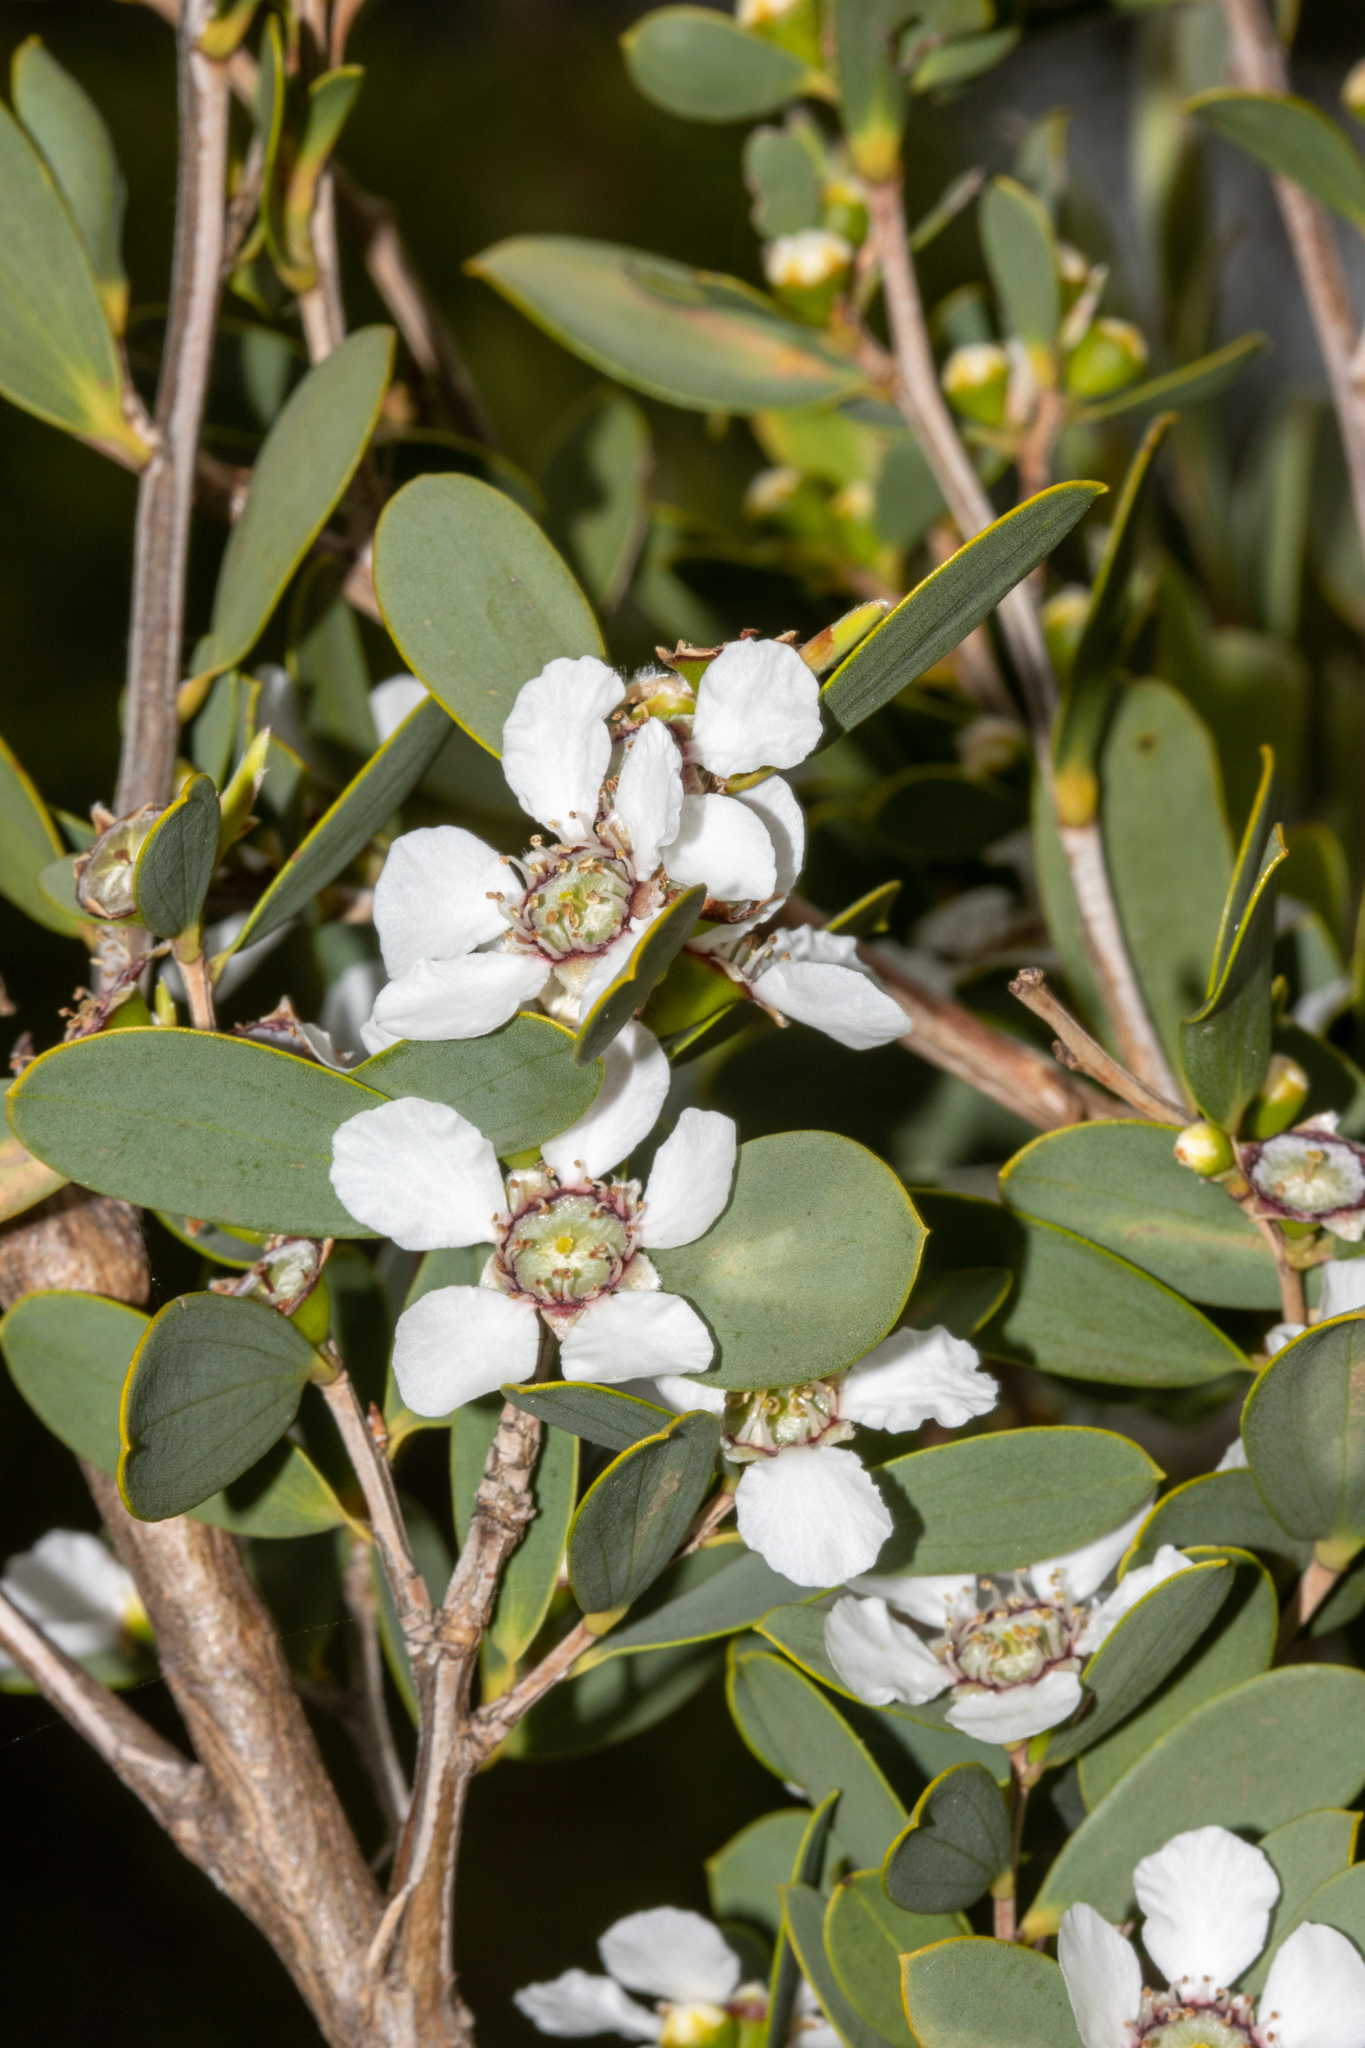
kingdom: Plantae
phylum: Tracheophyta
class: Magnoliopsida
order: Myrtales
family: Myrtaceae
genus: Leptospermum
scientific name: Leptospermum laevigatum
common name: Australian teatree
